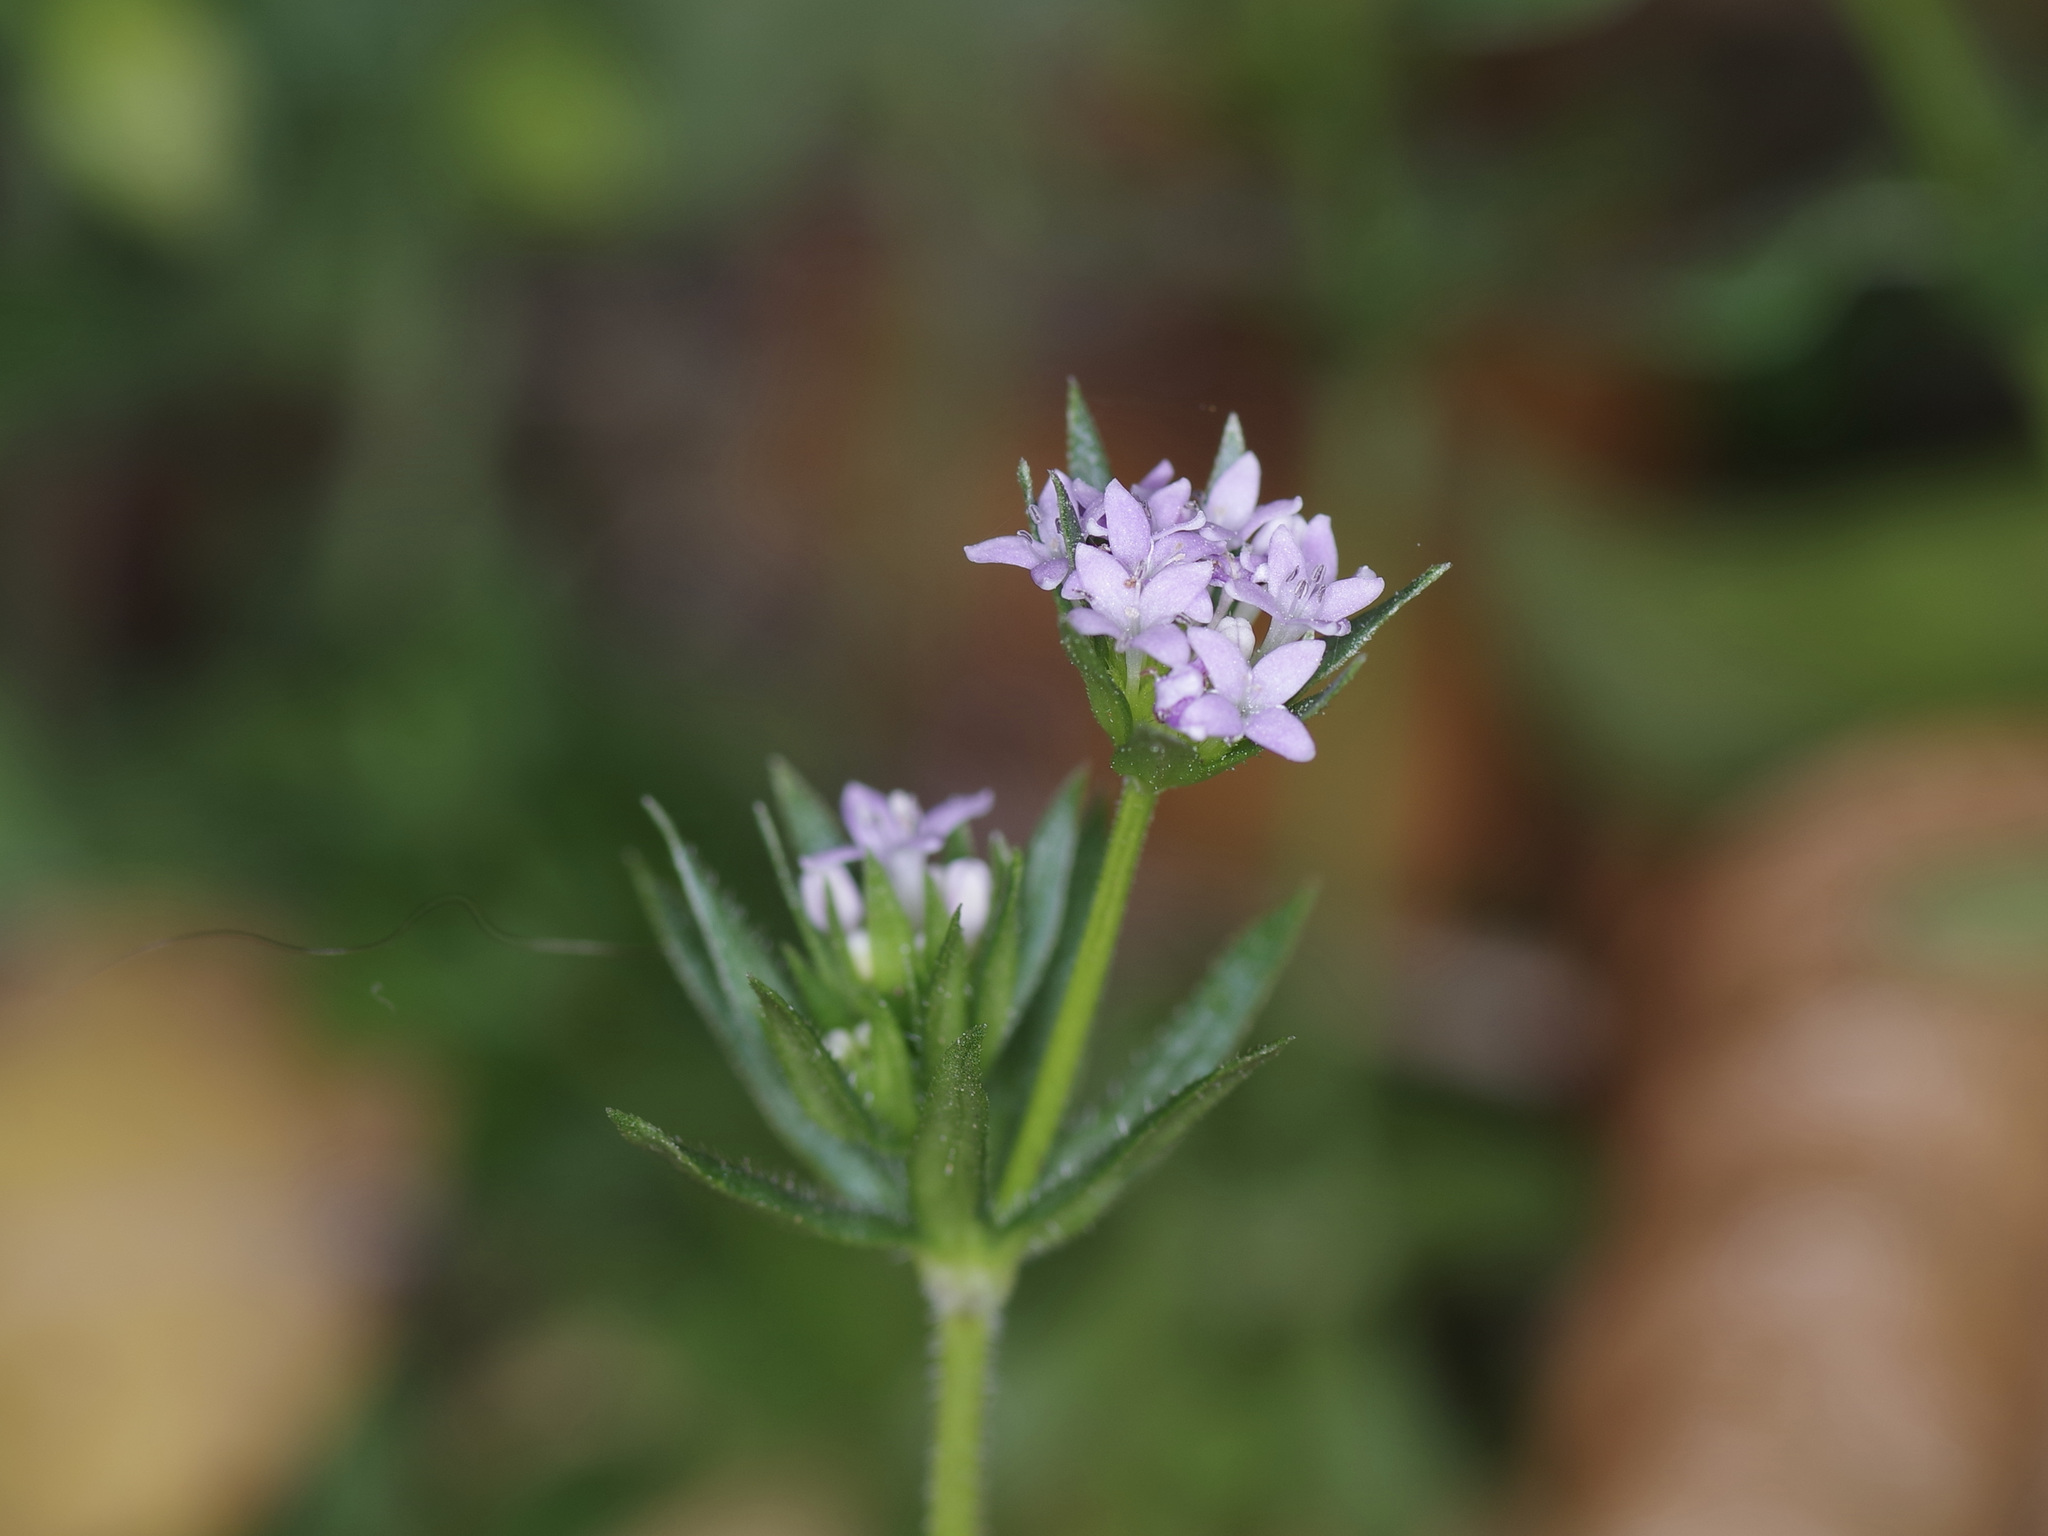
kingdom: Plantae
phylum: Tracheophyta
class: Magnoliopsida
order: Gentianales
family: Rubiaceae
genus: Sherardia
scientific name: Sherardia arvensis
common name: Field madder
